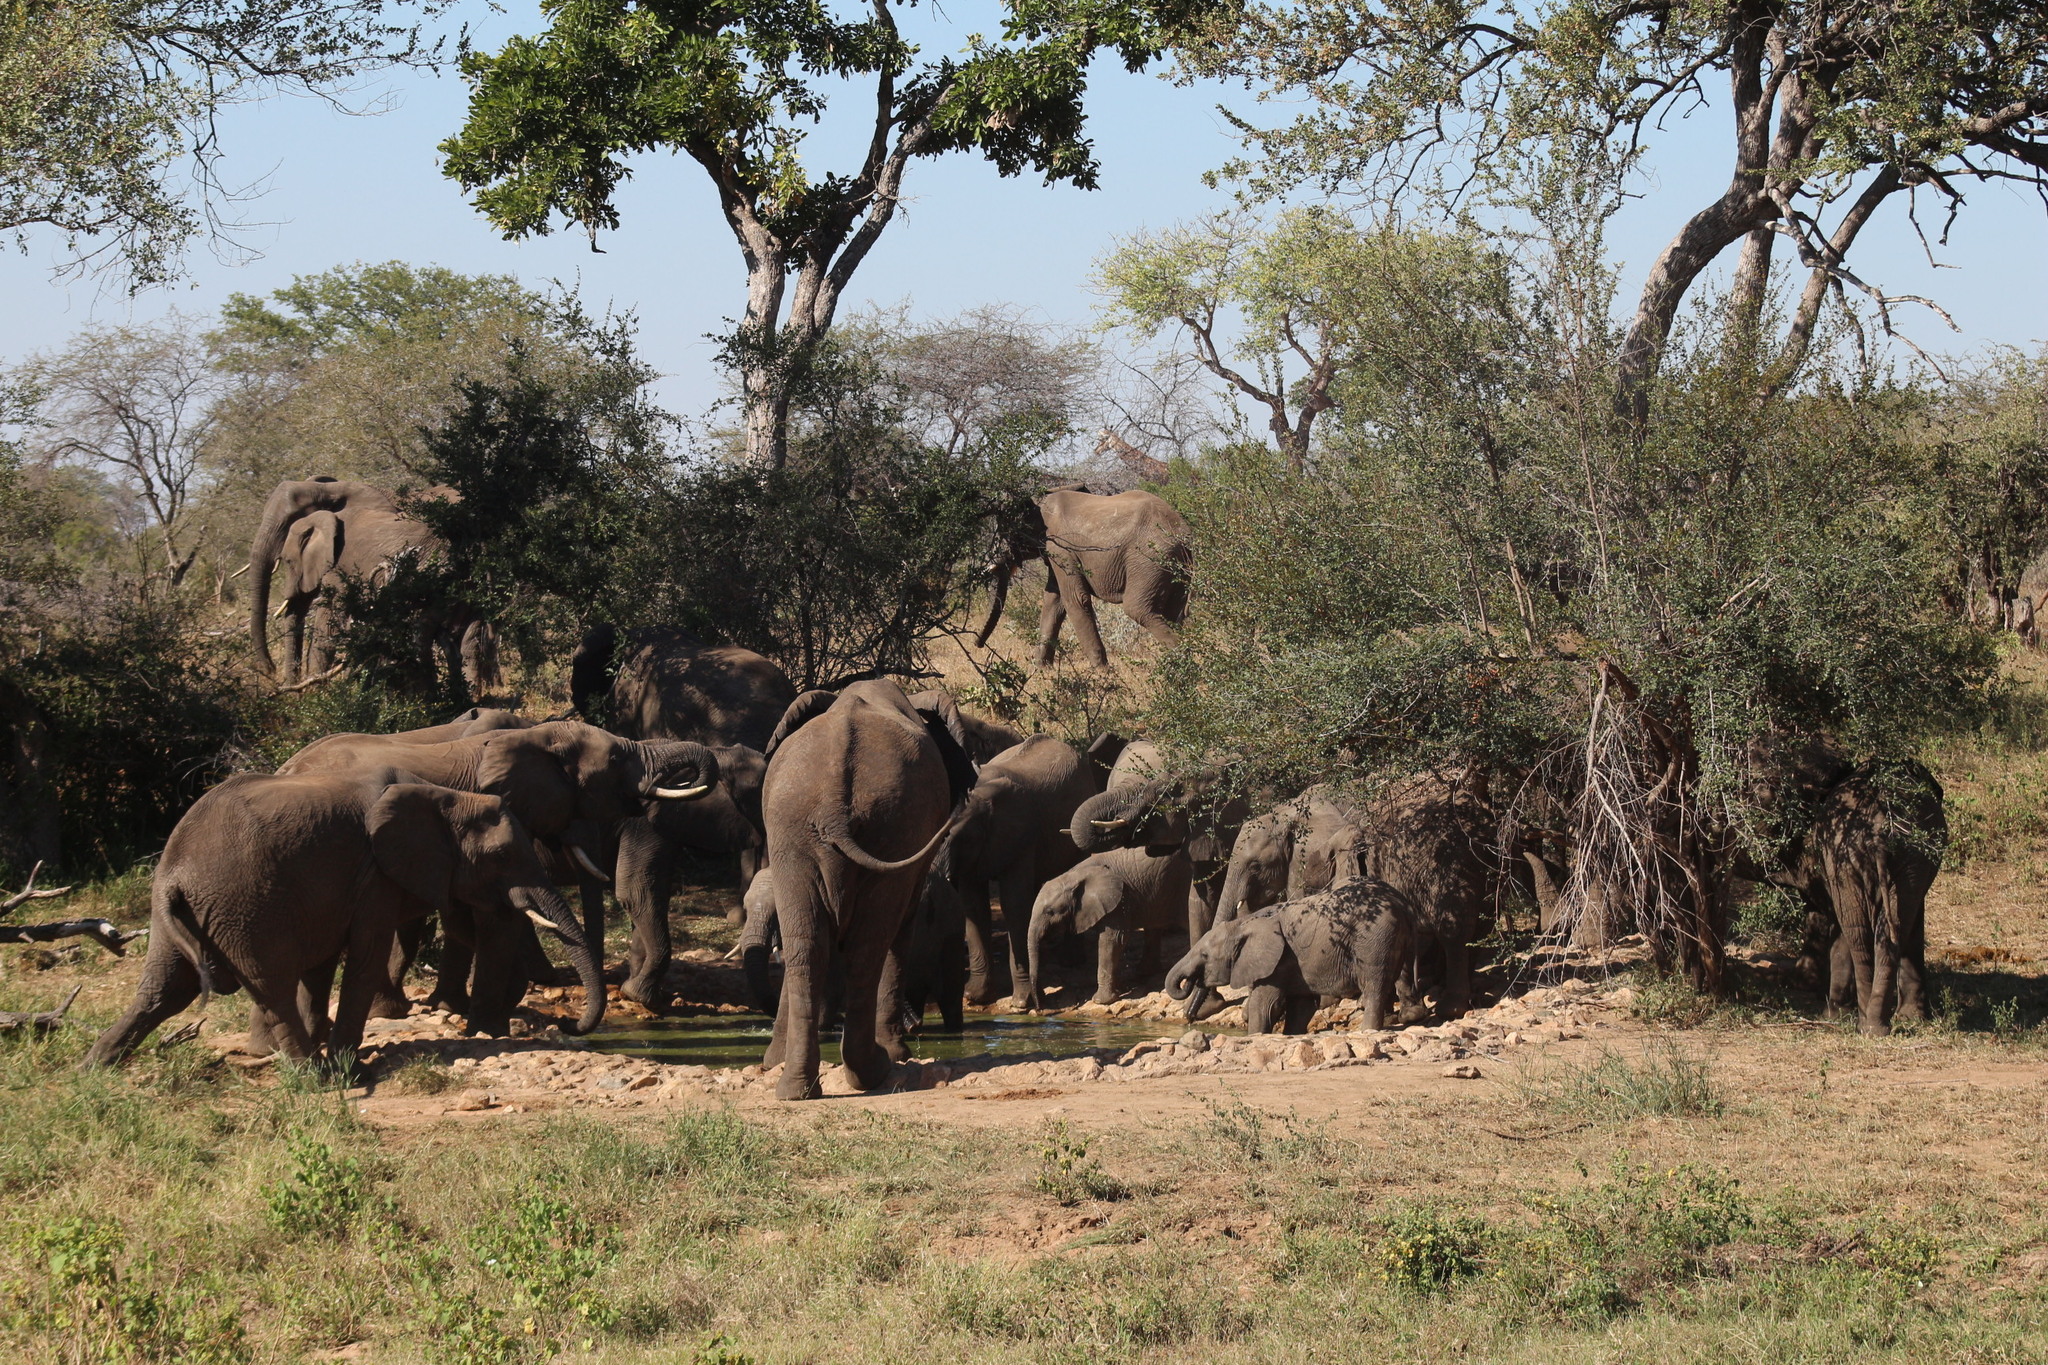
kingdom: Animalia
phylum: Chordata
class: Mammalia
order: Proboscidea
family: Elephantidae
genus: Loxodonta
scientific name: Loxodonta africana
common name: African elephant
